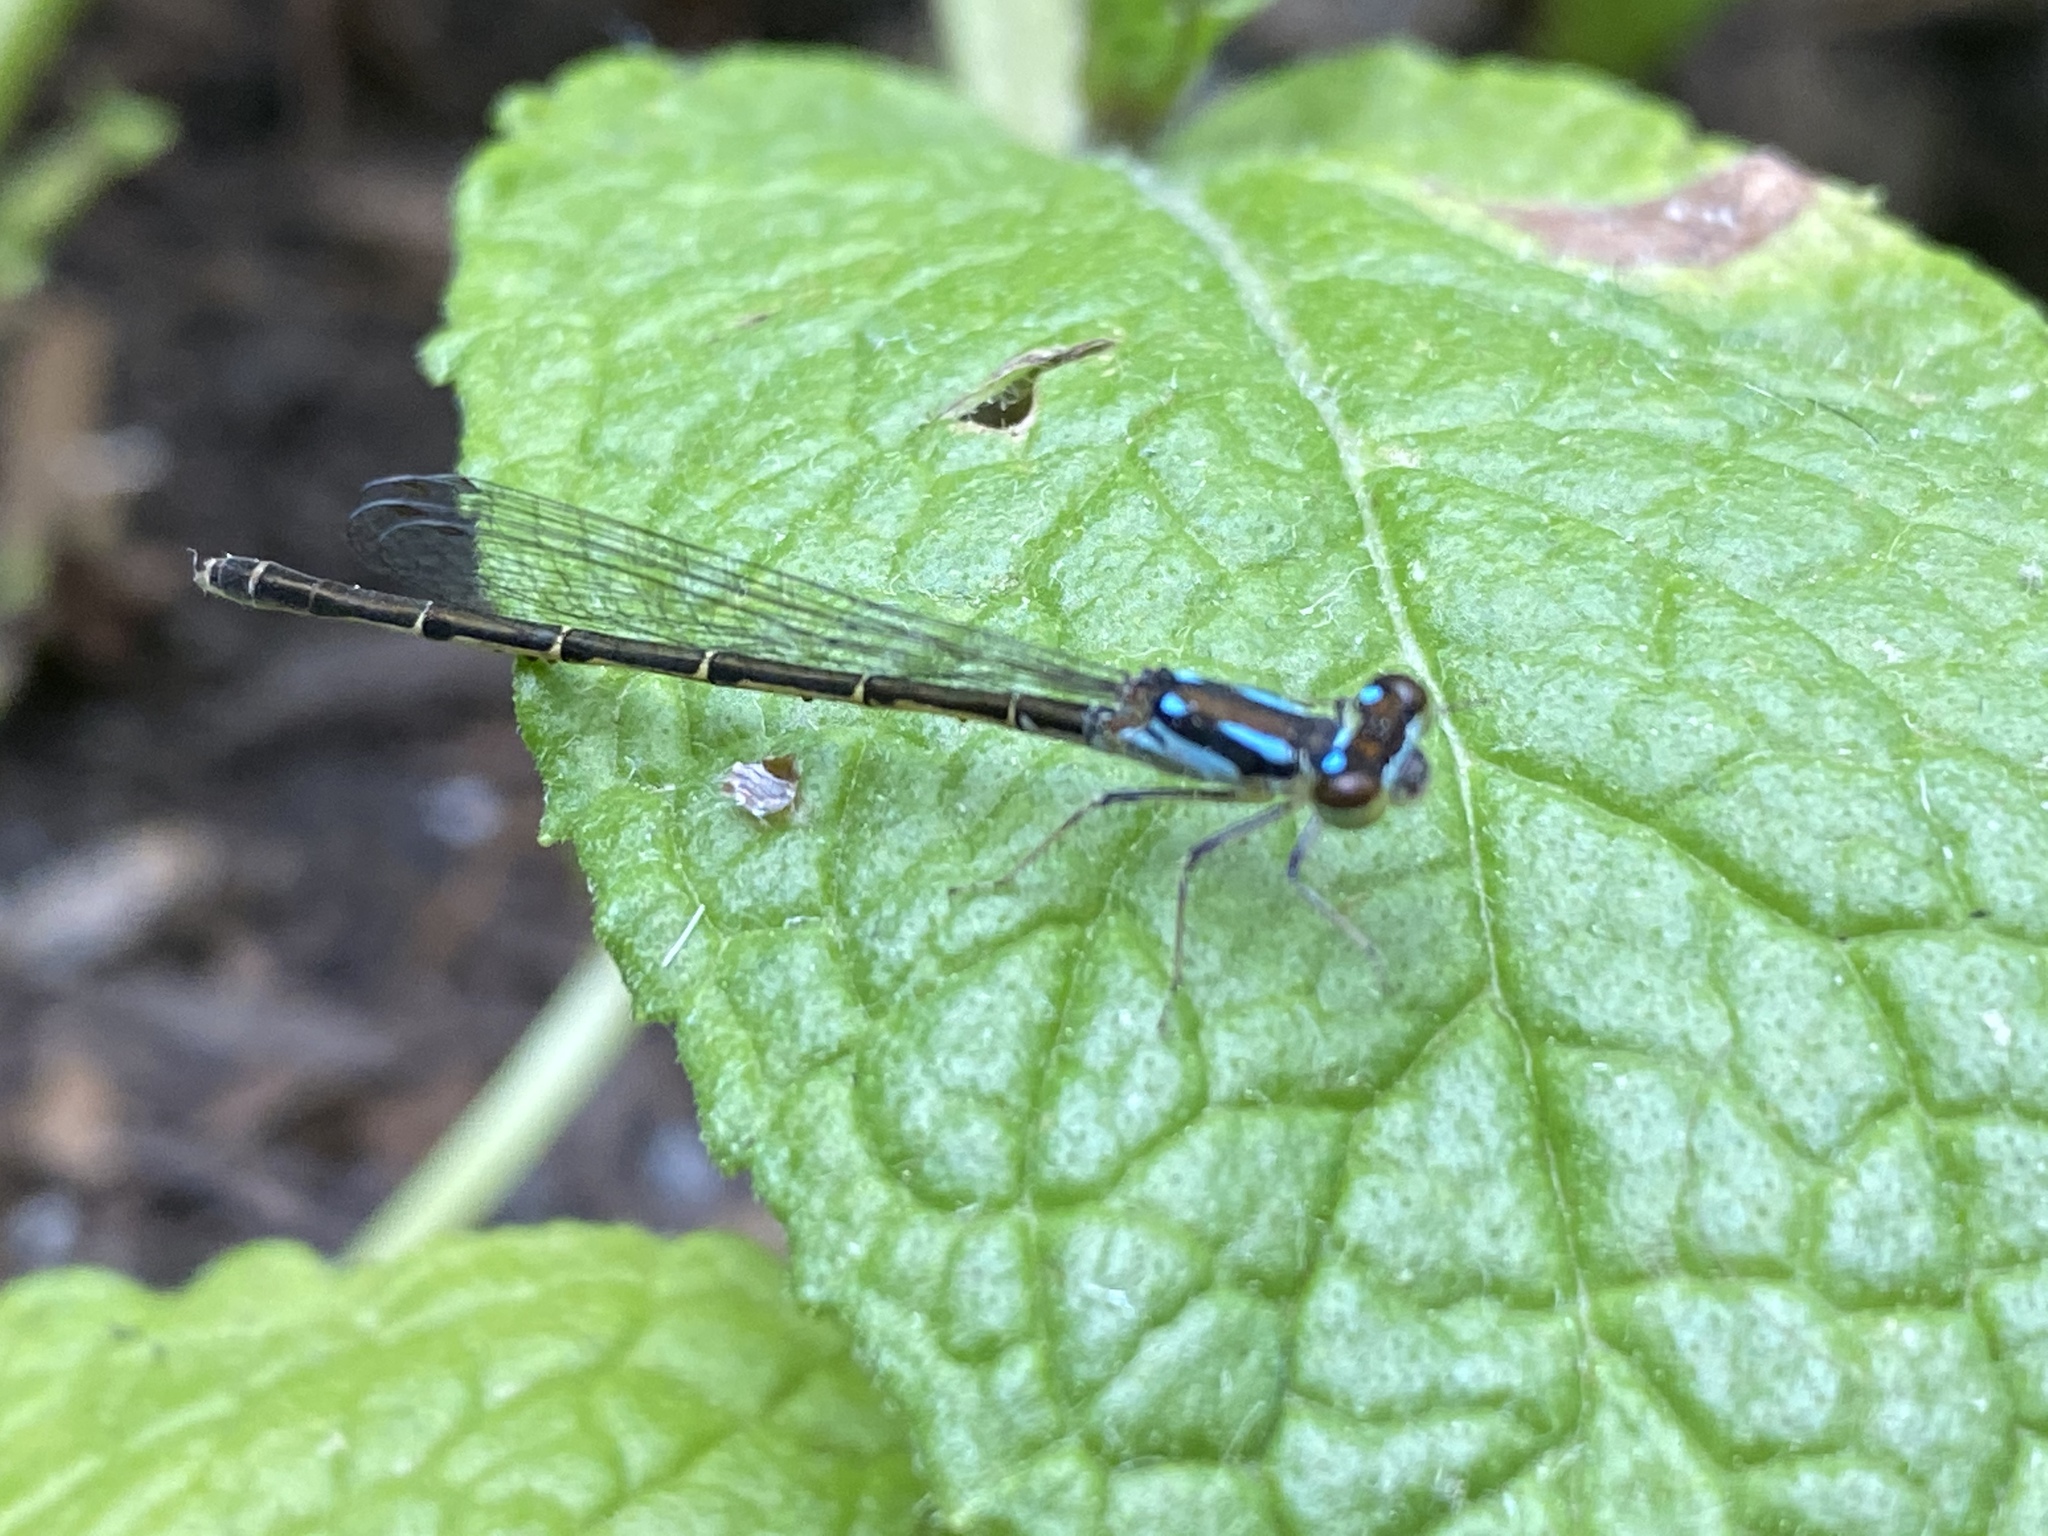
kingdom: Animalia
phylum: Arthropoda
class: Insecta
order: Odonata
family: Coenagrionidae
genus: Ischnura
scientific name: Ischnura posita
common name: Fragile forktail
